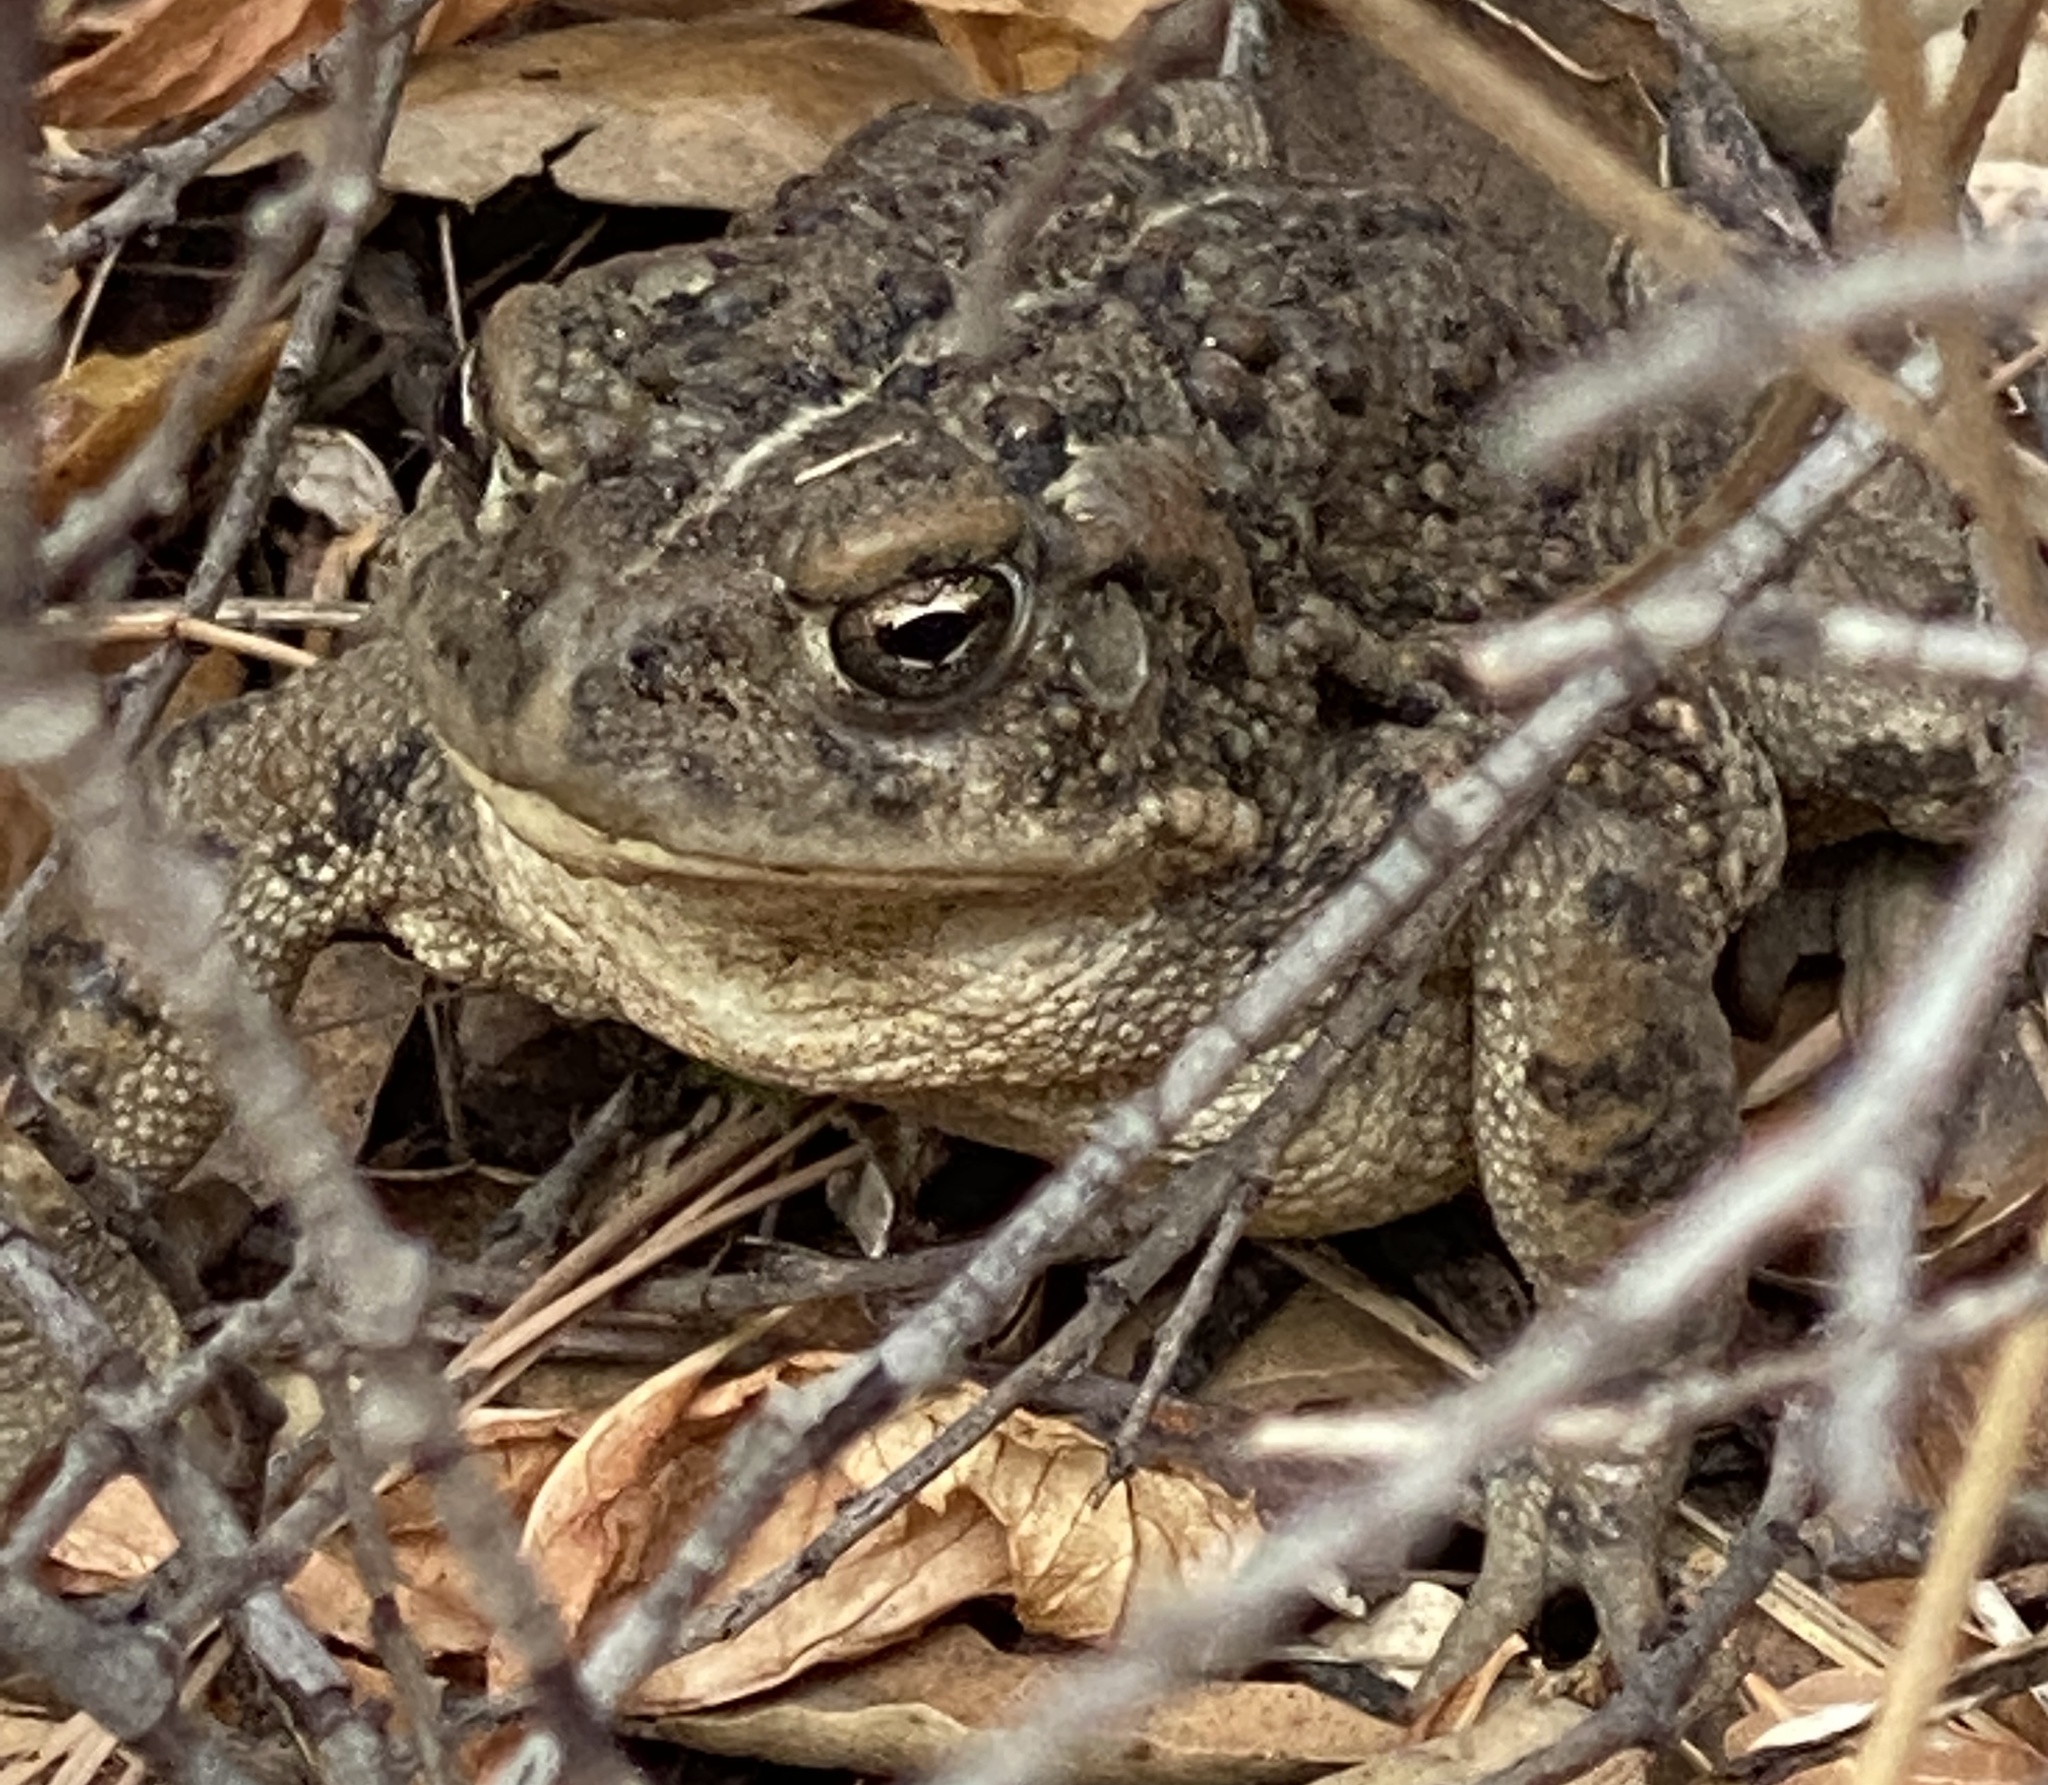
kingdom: Animalia
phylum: Chordata
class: Amphibia
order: Anura
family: Bufonidae
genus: Anaxyrus
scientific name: Anaxyrus boreas
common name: Western toad
